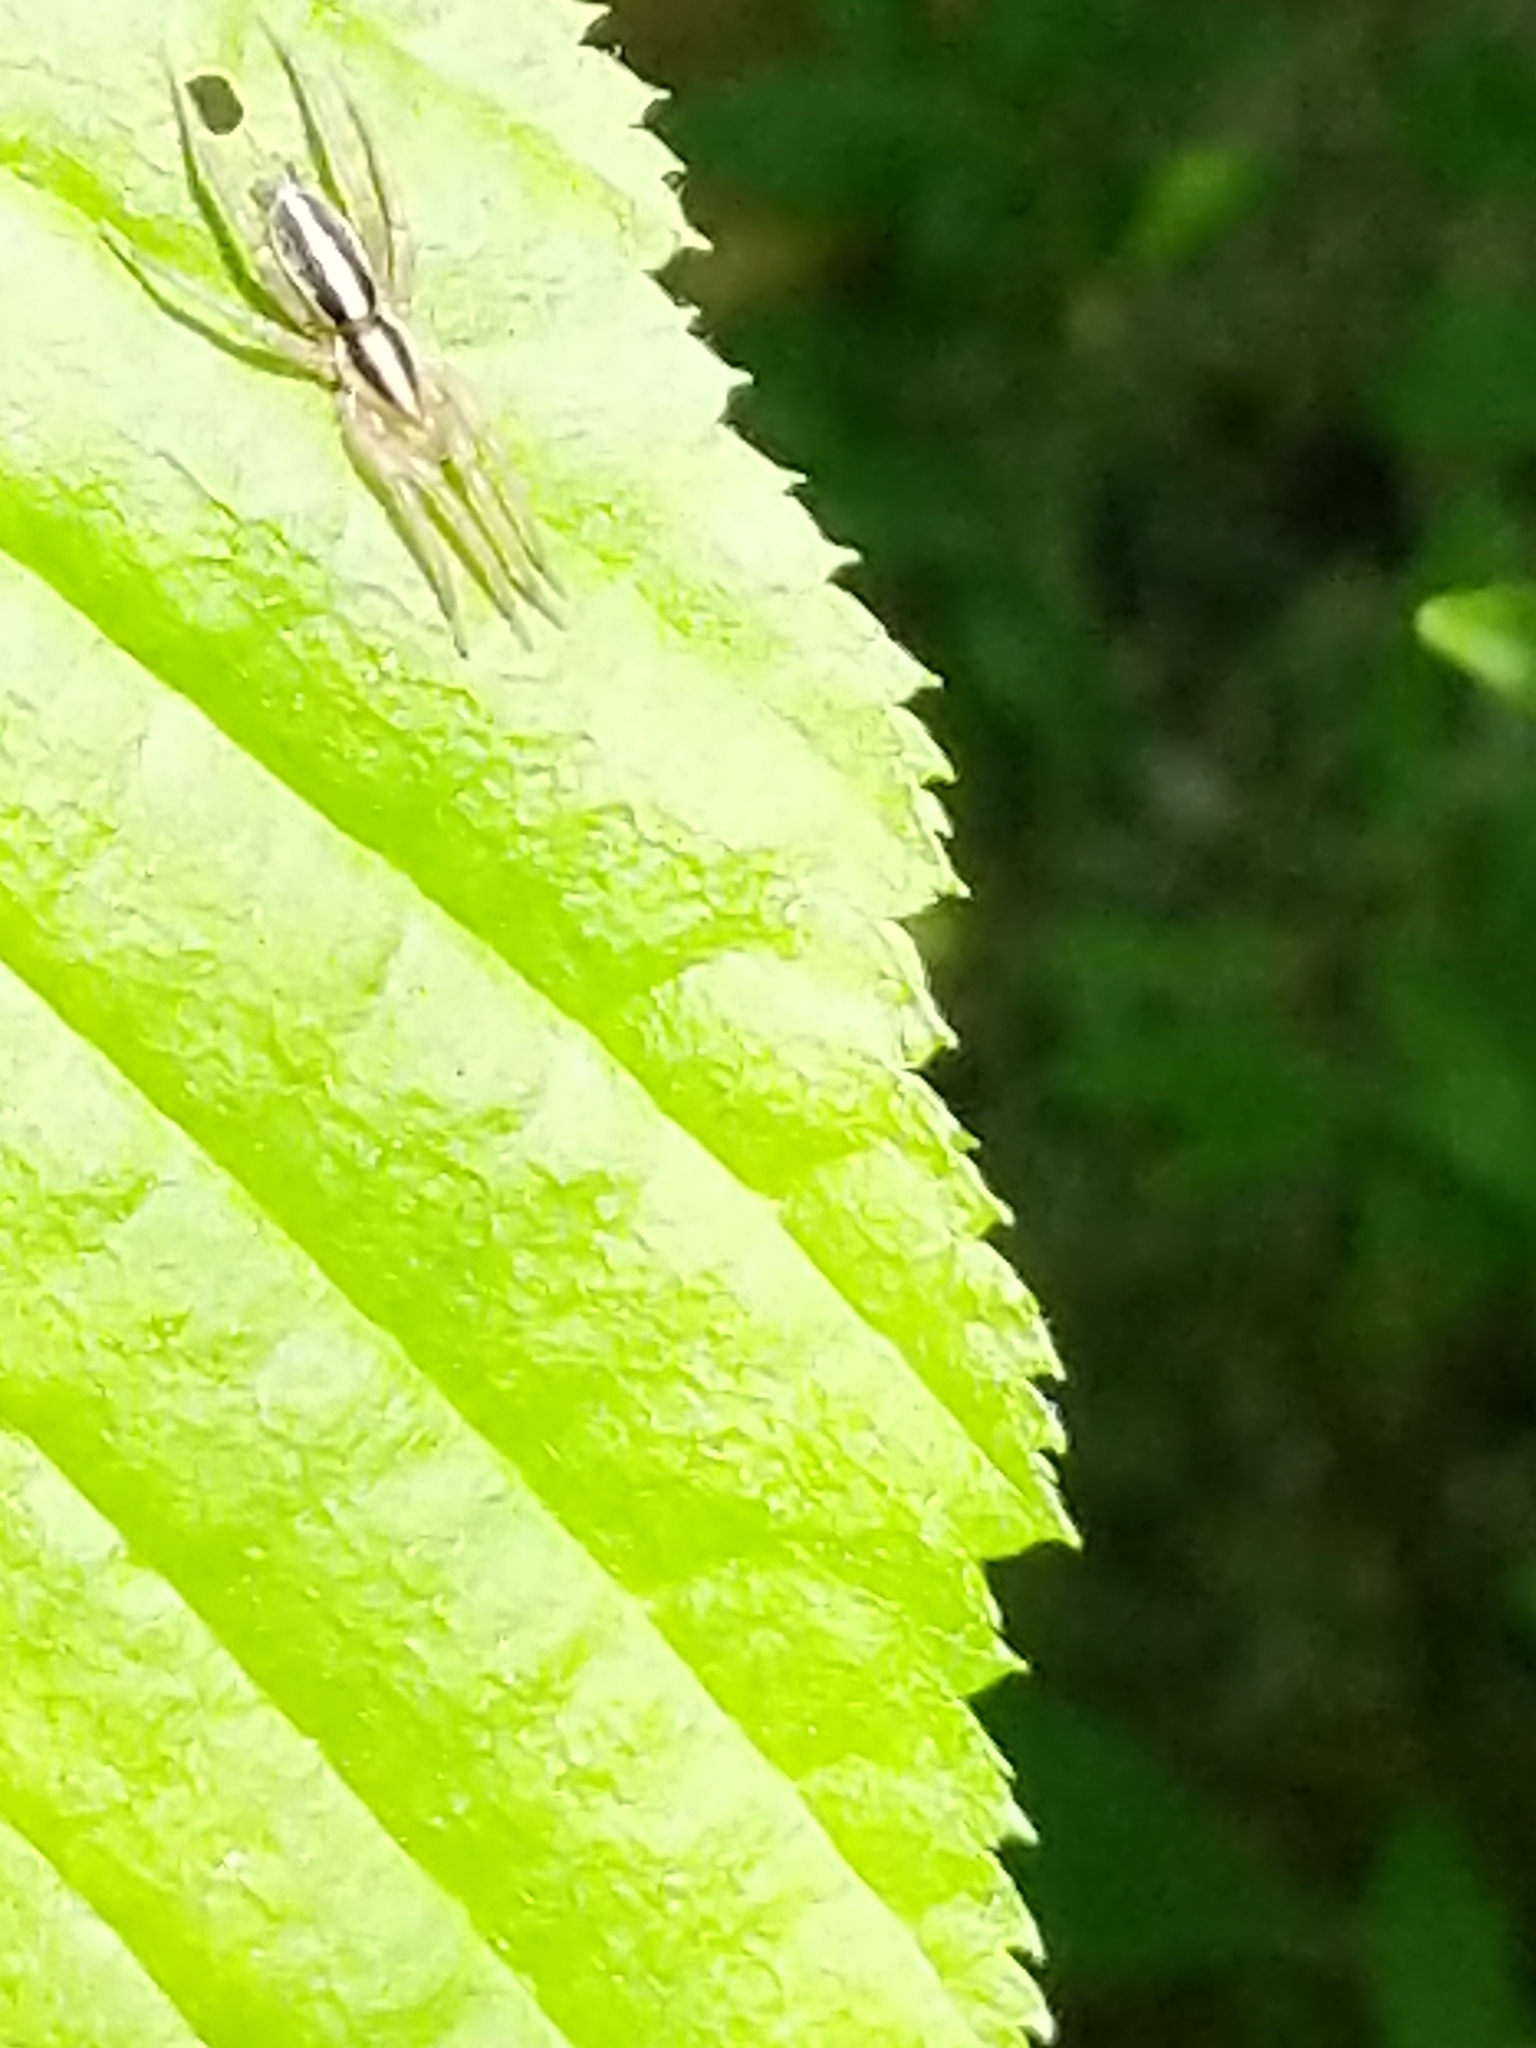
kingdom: Animalia
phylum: Arthropoda
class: Arachnida
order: Araneae
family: Gnaphosidae
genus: Cesonia
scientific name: Cesonia bilineata
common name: Two-lined stealthy ground spider
